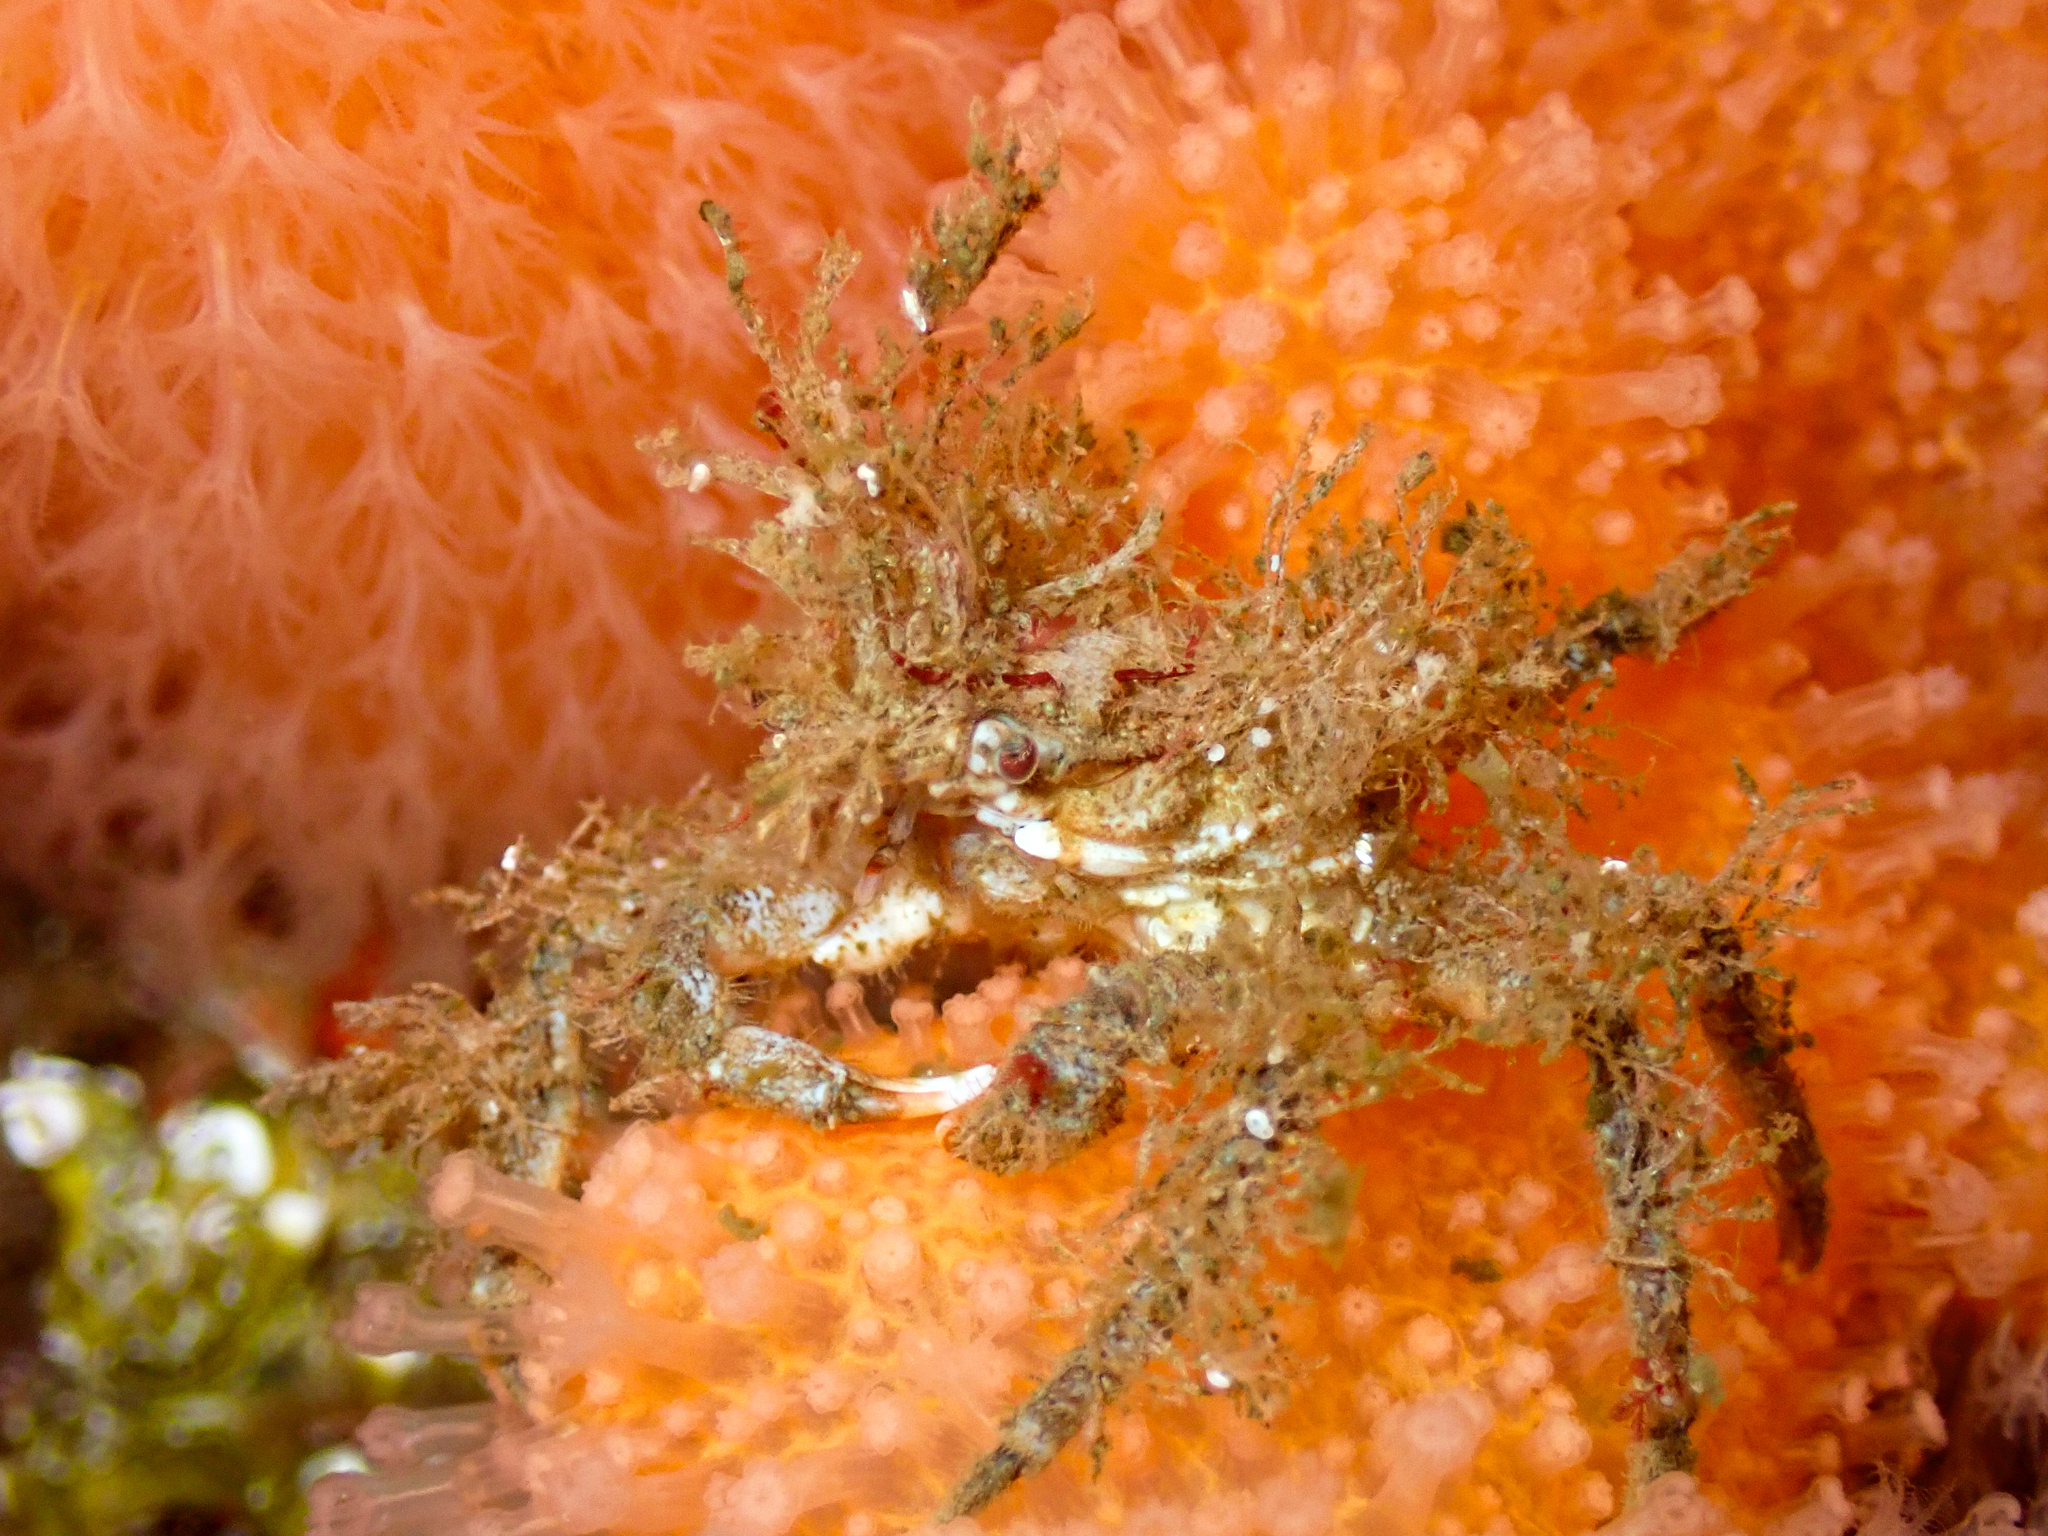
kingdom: Animalia
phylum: Arthropoda
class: Malacostraca
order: Decapoda
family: Oregoniidae
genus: Hyas
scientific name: Hyas araneus
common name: Great spider crab
